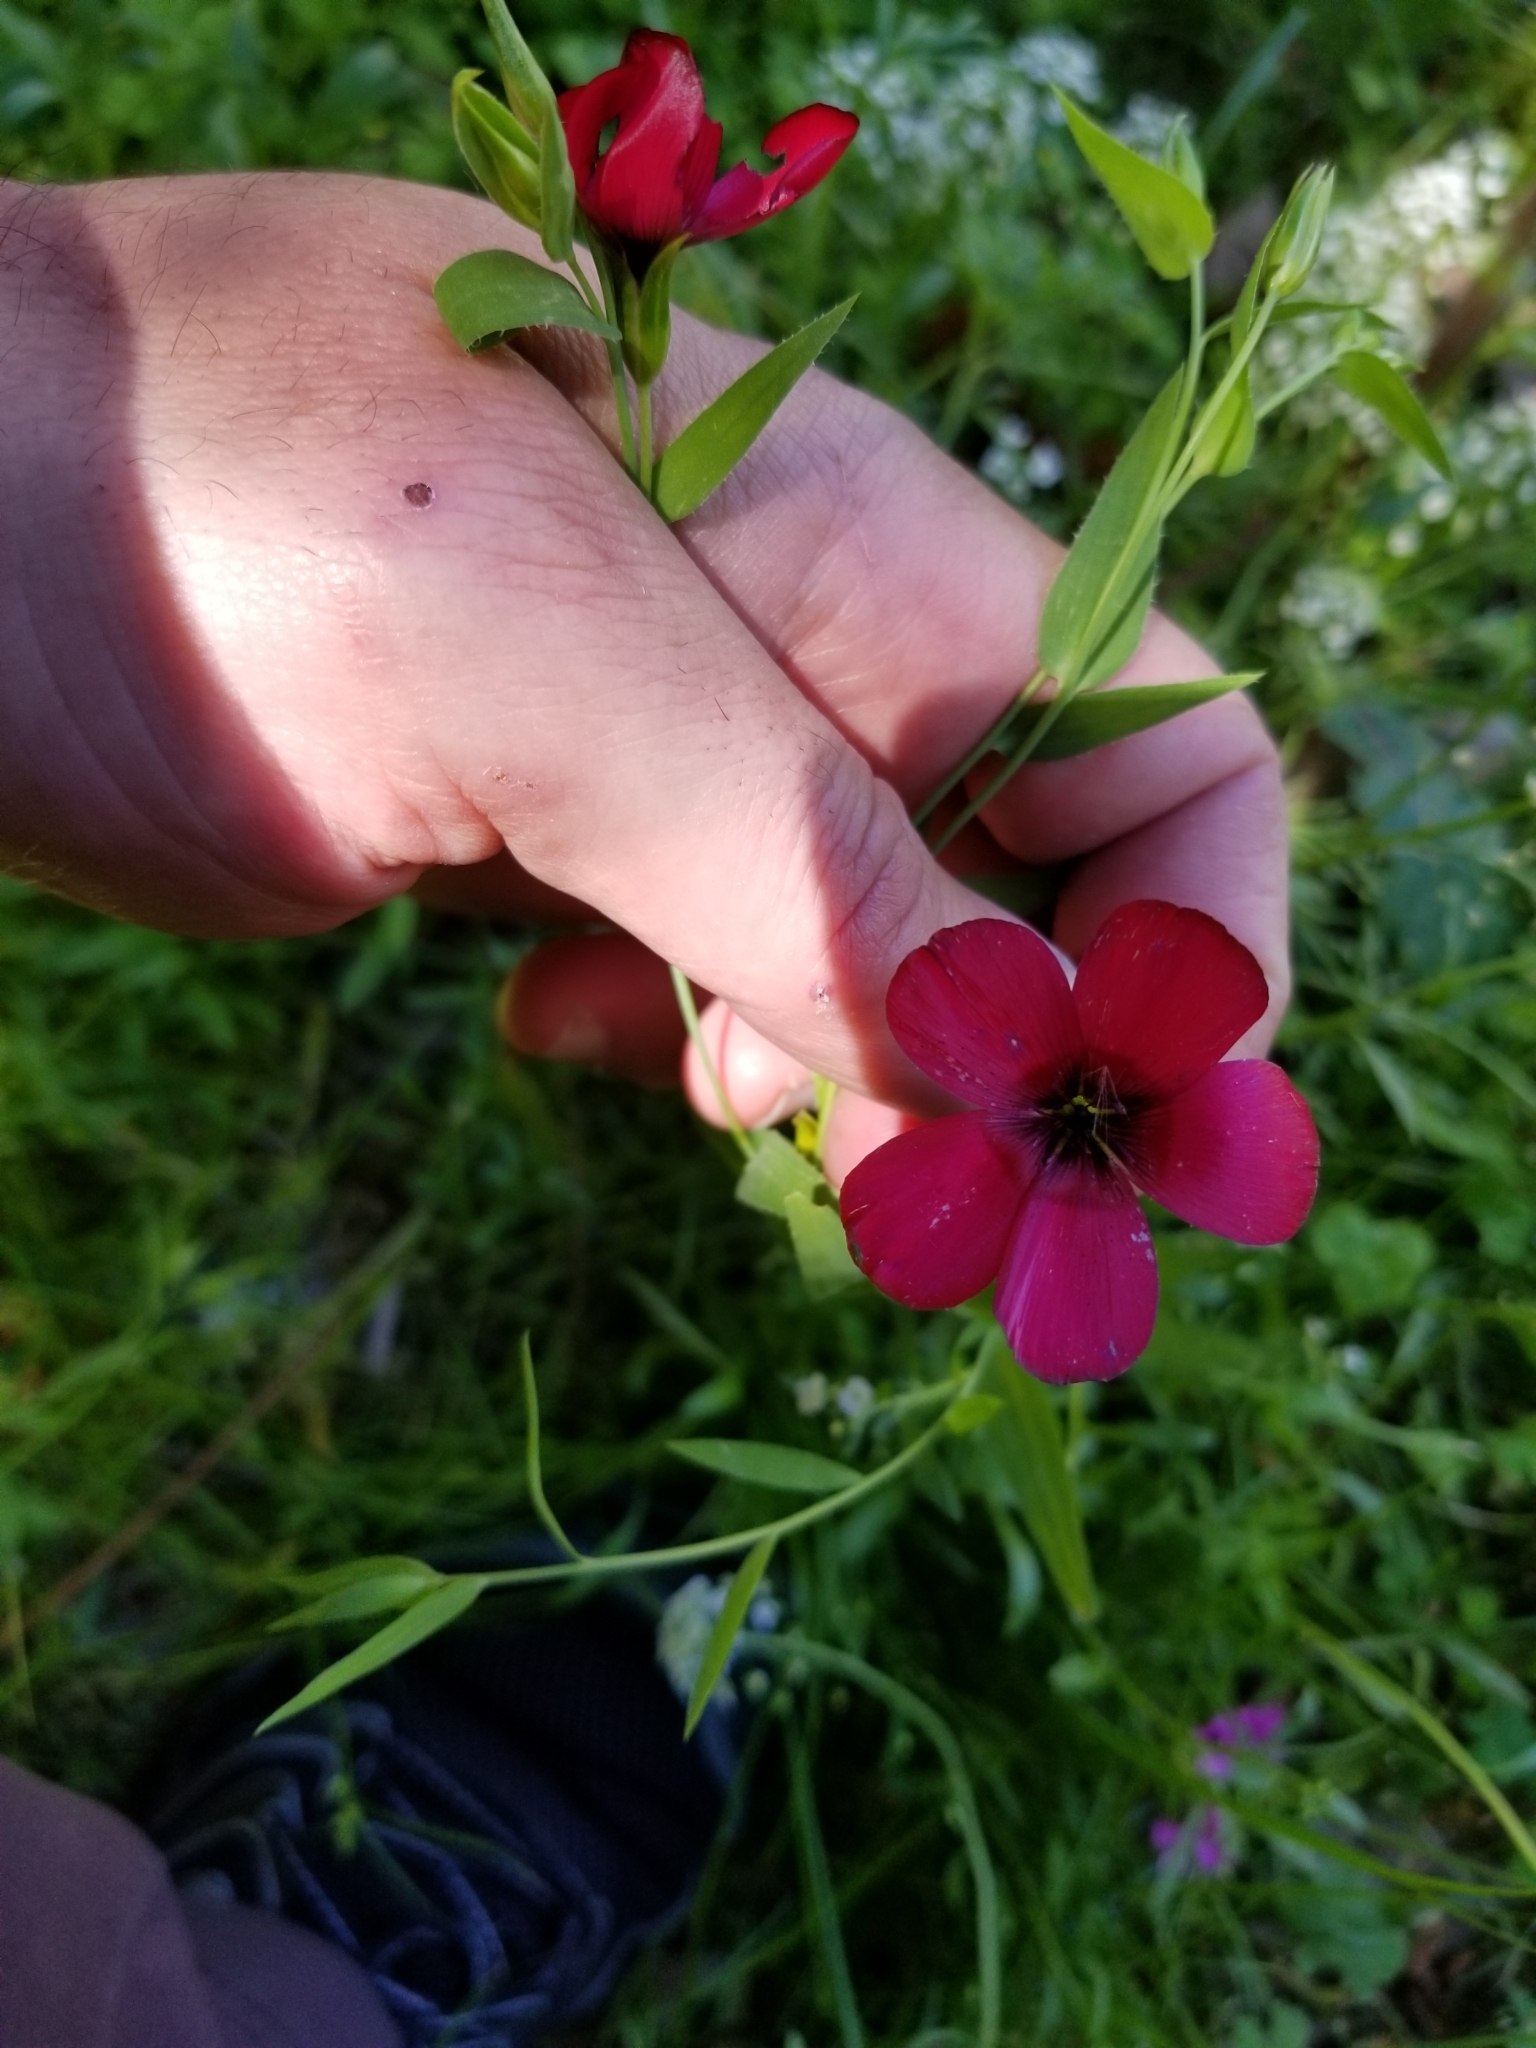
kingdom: Plantae
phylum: Tracheophyta
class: Magnoliopsida
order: Malpighiales
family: Linaceae
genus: Linum
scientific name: Linum grandiflorum
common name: Crimson flax
